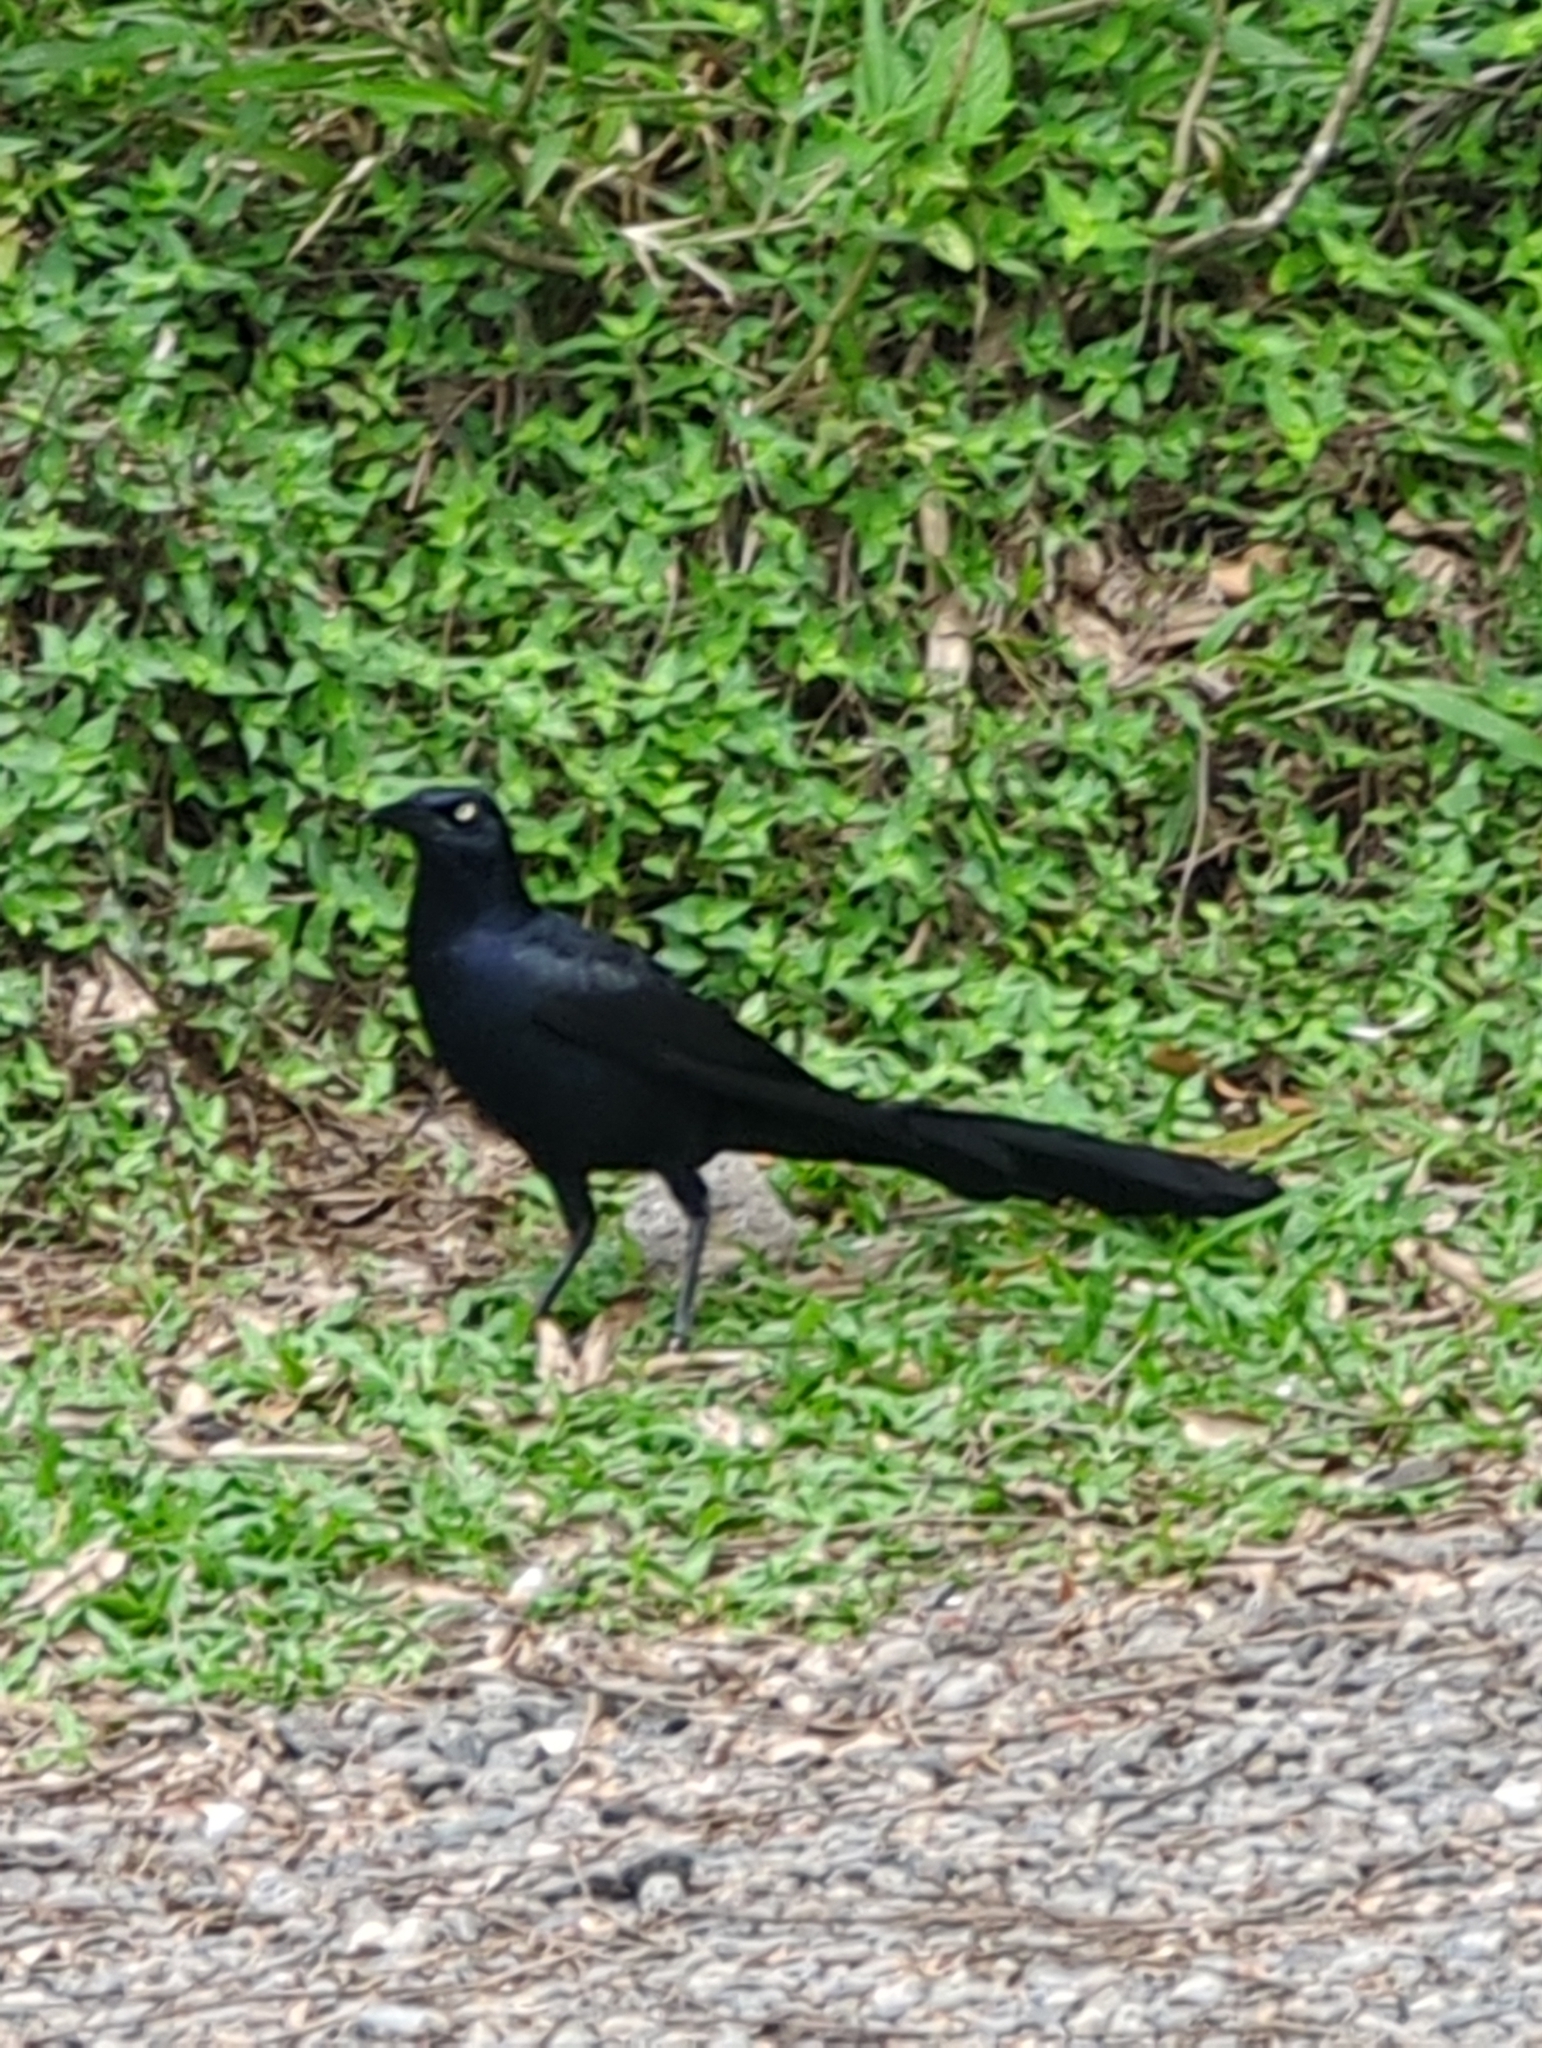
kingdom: Animalia
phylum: Chordata
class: Aves
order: Passeriformes
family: Icteridae
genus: Quiscalus
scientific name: Quiscalus mexicanus
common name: Great-tailed grackle
